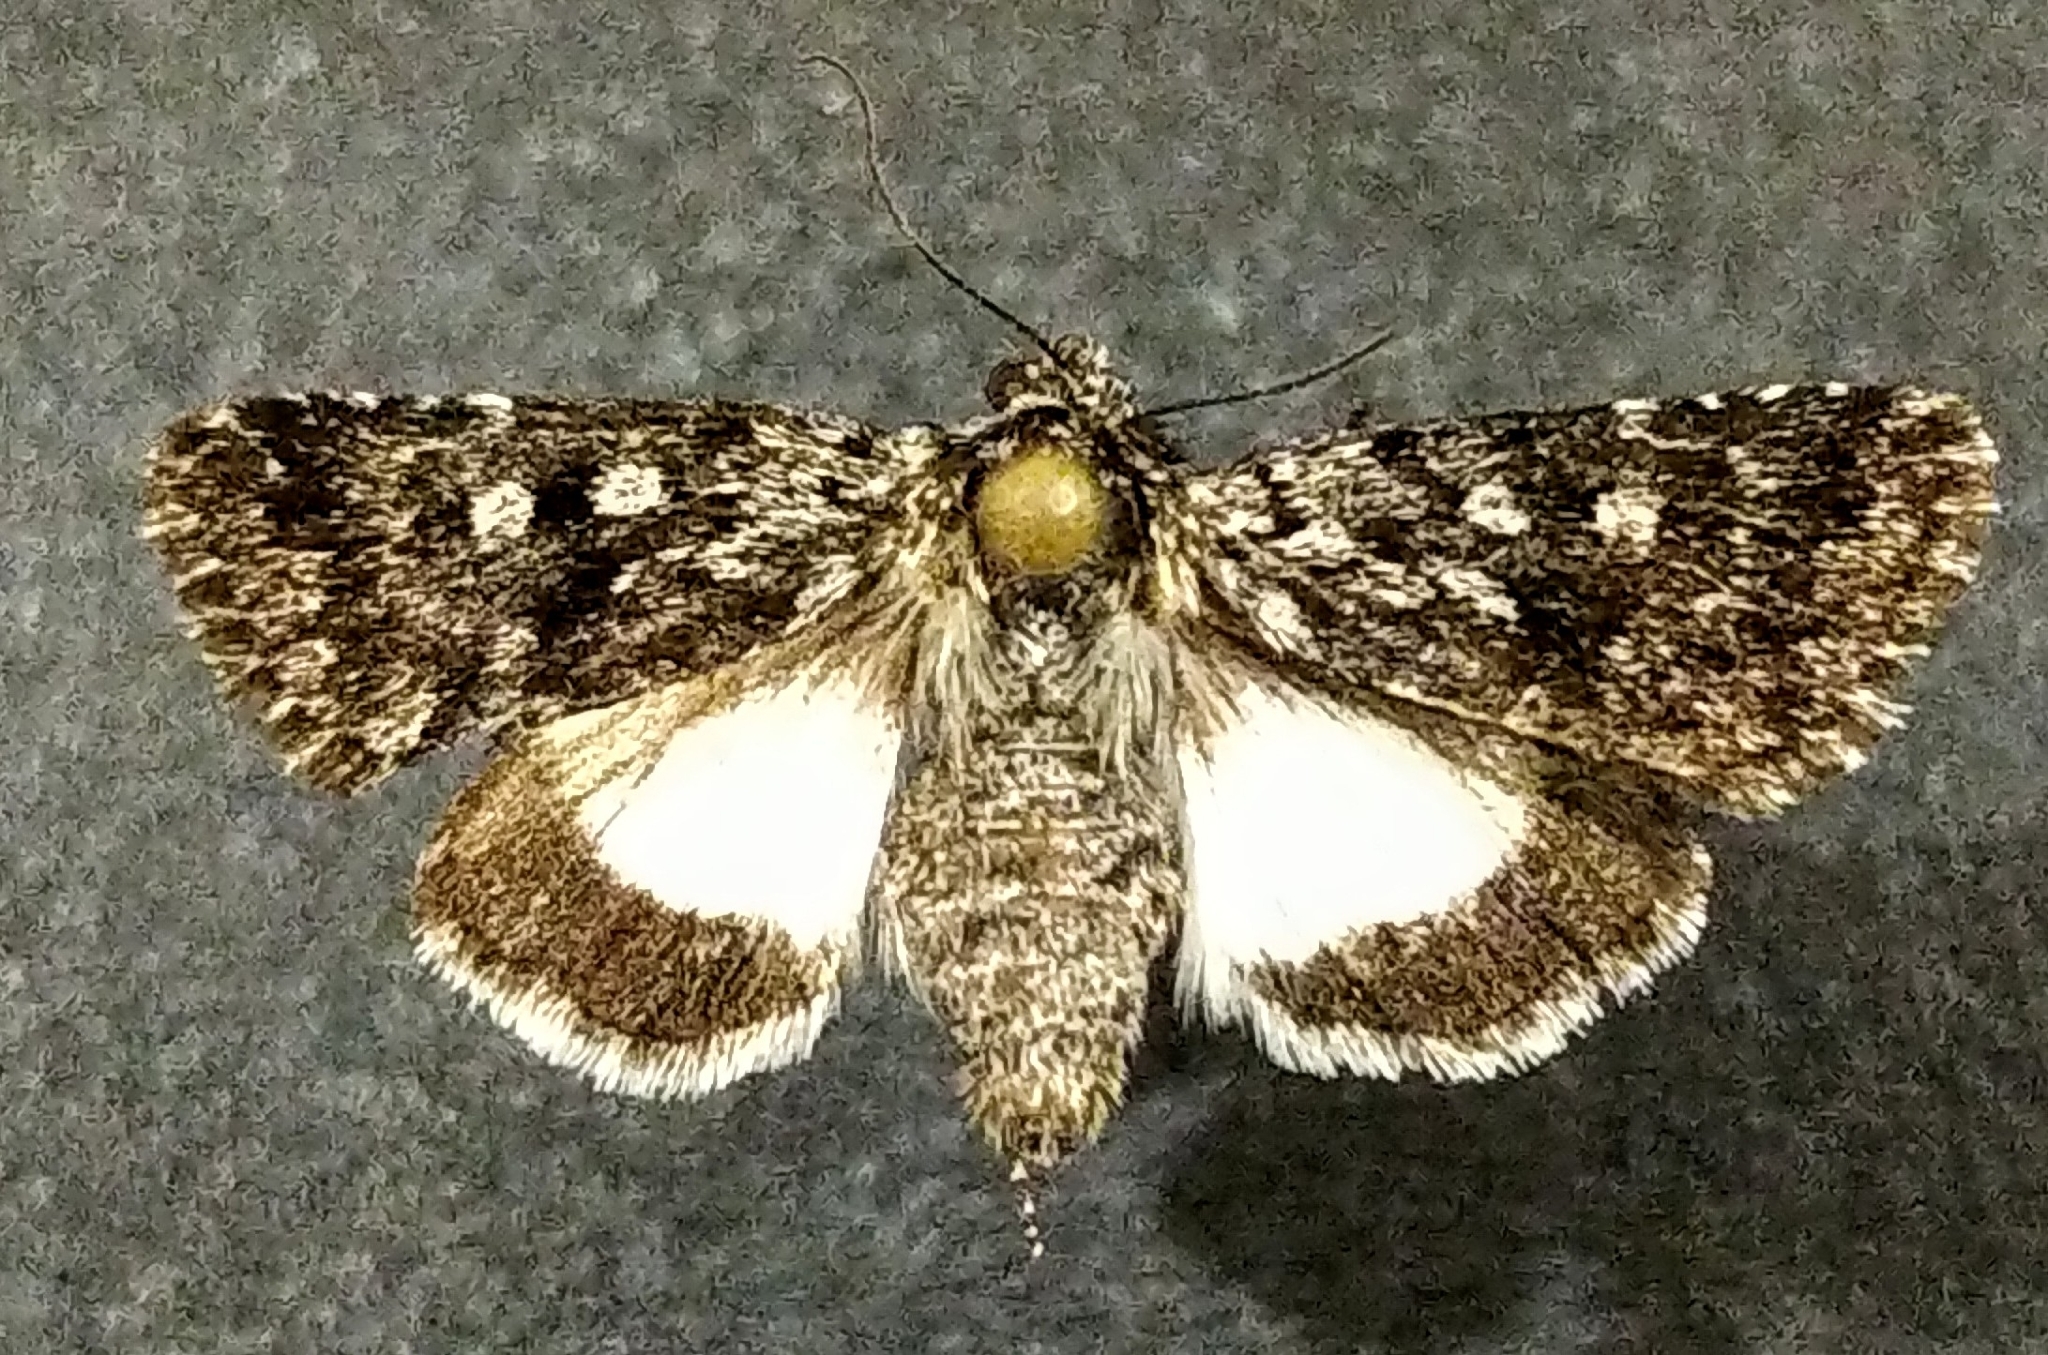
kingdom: Animalia
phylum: Arthropoda
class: Insecta
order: Lepidoptera
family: Noctuidae
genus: Sympistis
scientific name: Sympistis heliophila
